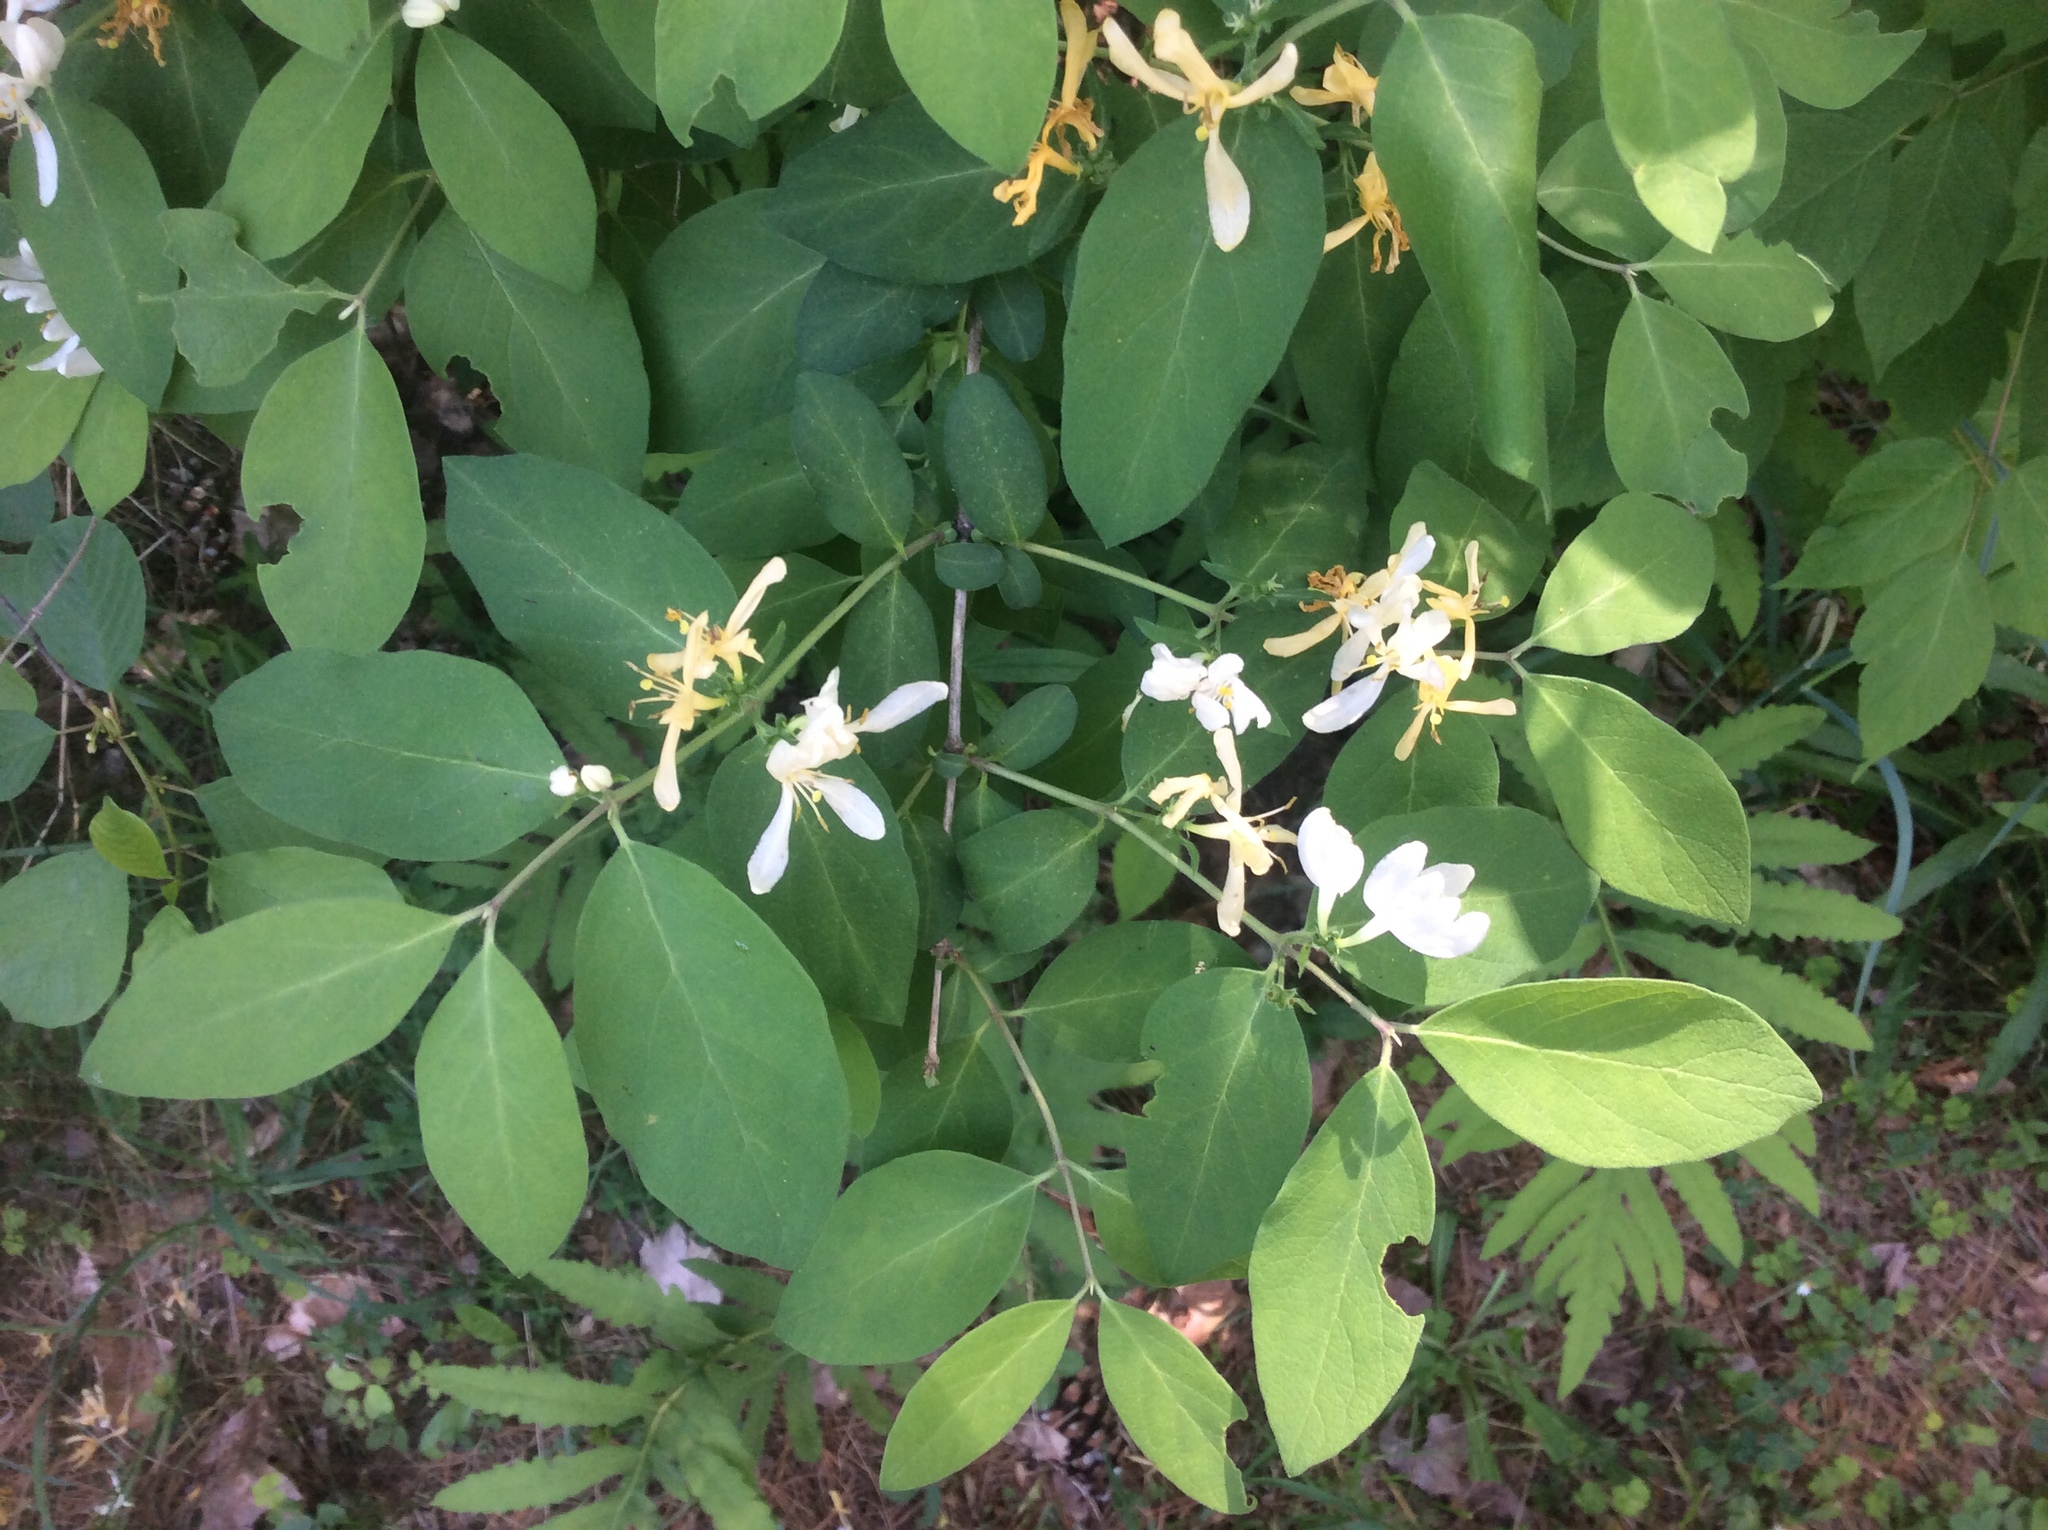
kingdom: Plantae
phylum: Tracheophyta
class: Magnoliopsida
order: Dipsacales
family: Caprifoliaceae
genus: Lonicera
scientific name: Lonicera morrowii
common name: Morrow's honeysuckle
